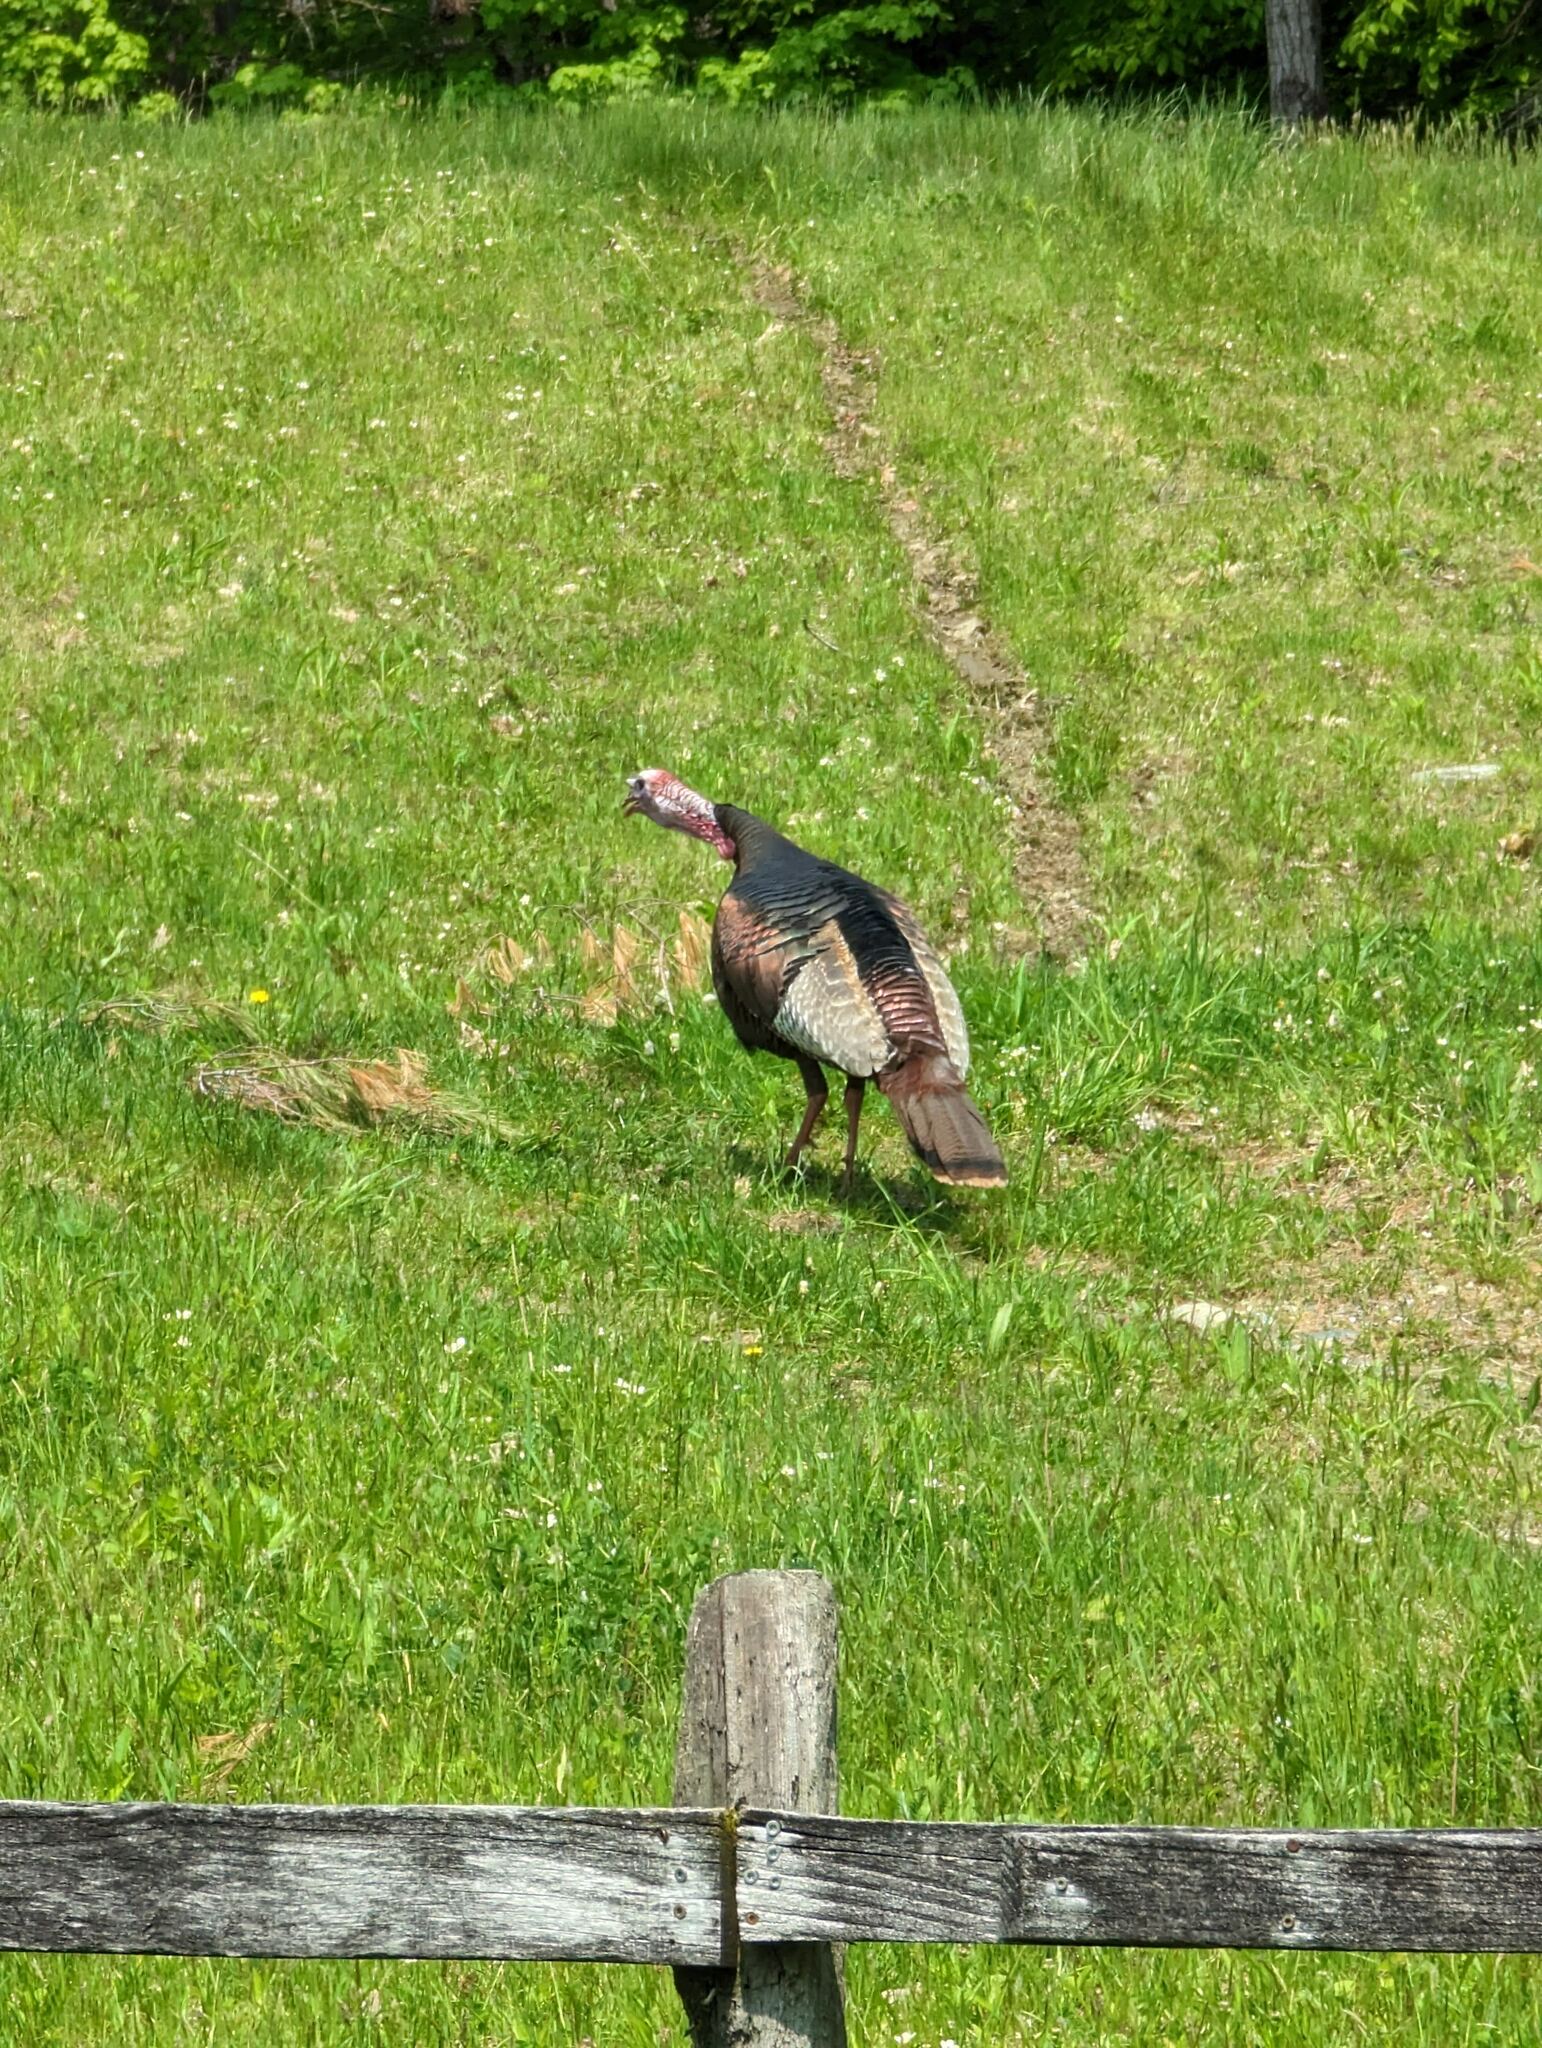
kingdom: Animalia
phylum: Chordata
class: Aves
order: Galliformes
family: Phasianidae
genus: Meleagris
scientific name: Meleagris gallopavo
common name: Wild turkey
